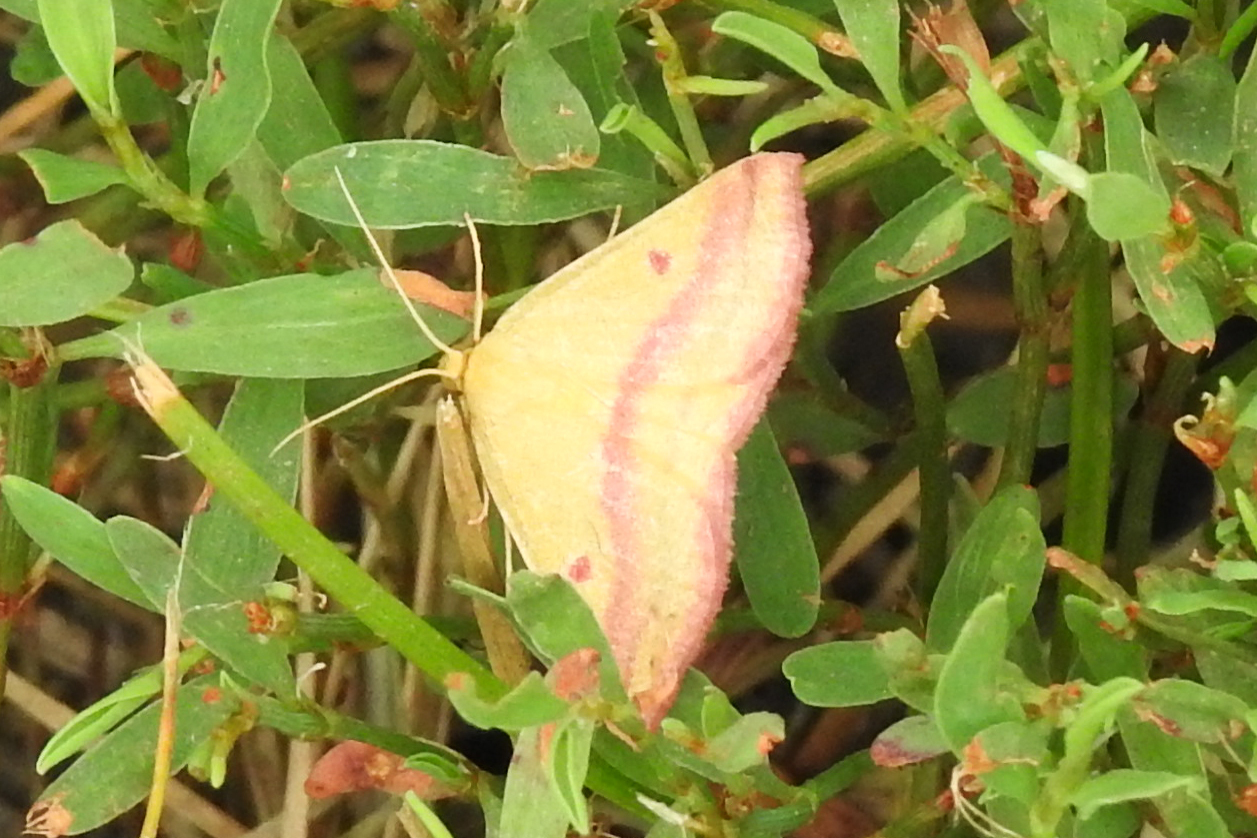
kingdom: Animalia
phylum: Arthropoda
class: Insecta
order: Lepidoptera
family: Geometridae
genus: Haematopis
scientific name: Haematopis grataria
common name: Chickweed geometer
